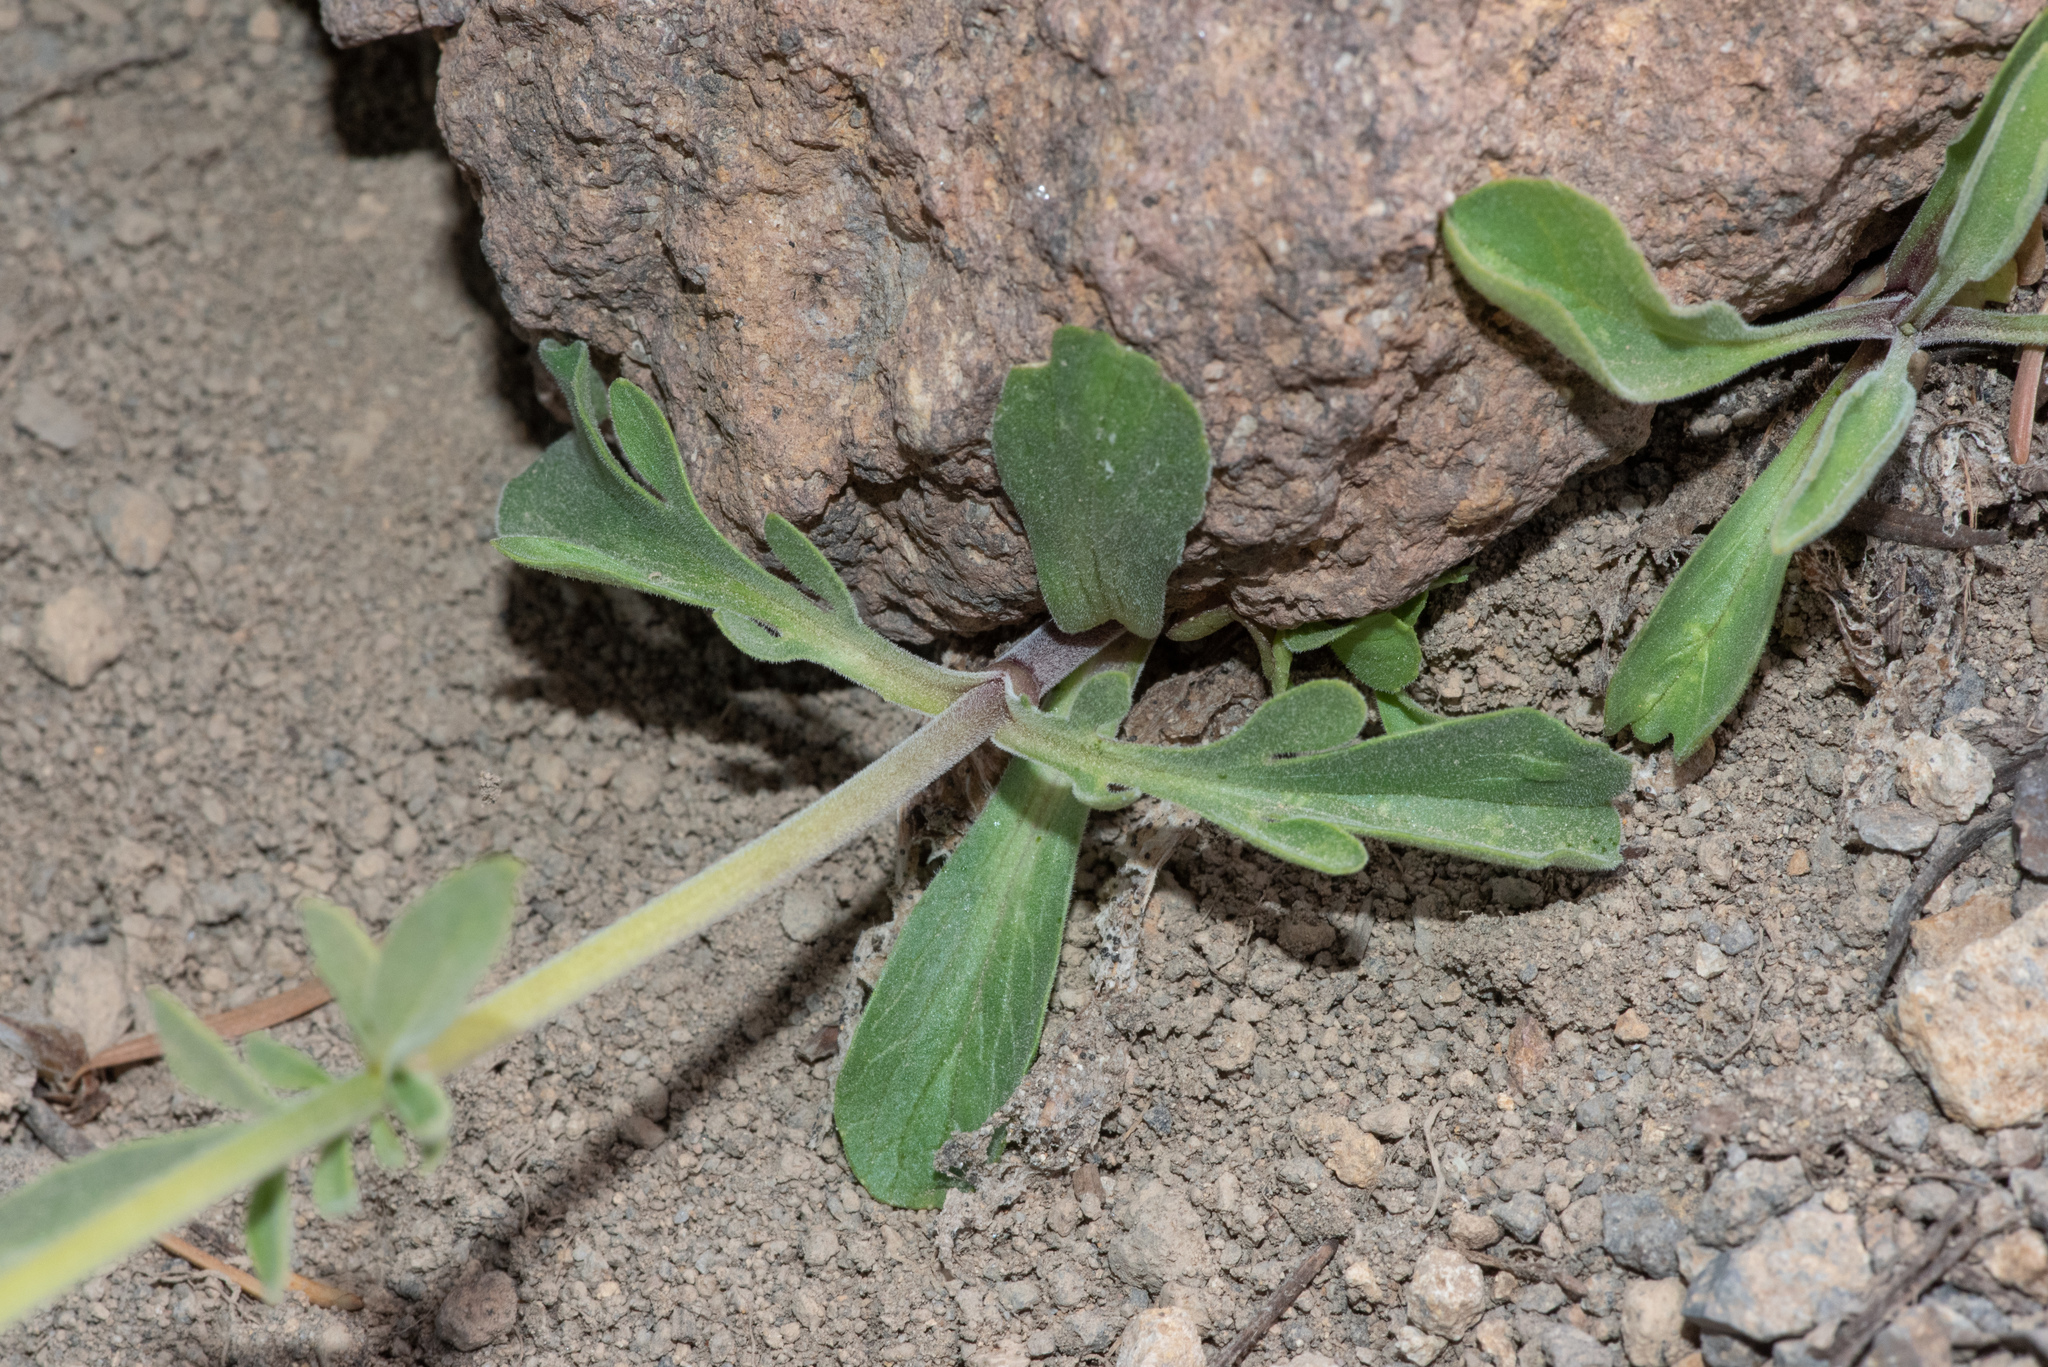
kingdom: Plantae
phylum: Tracheophyta
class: Magnoliopsida
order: Dipsacales
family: Caprifoliaceae
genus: Valeriana
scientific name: Valeriana californica
